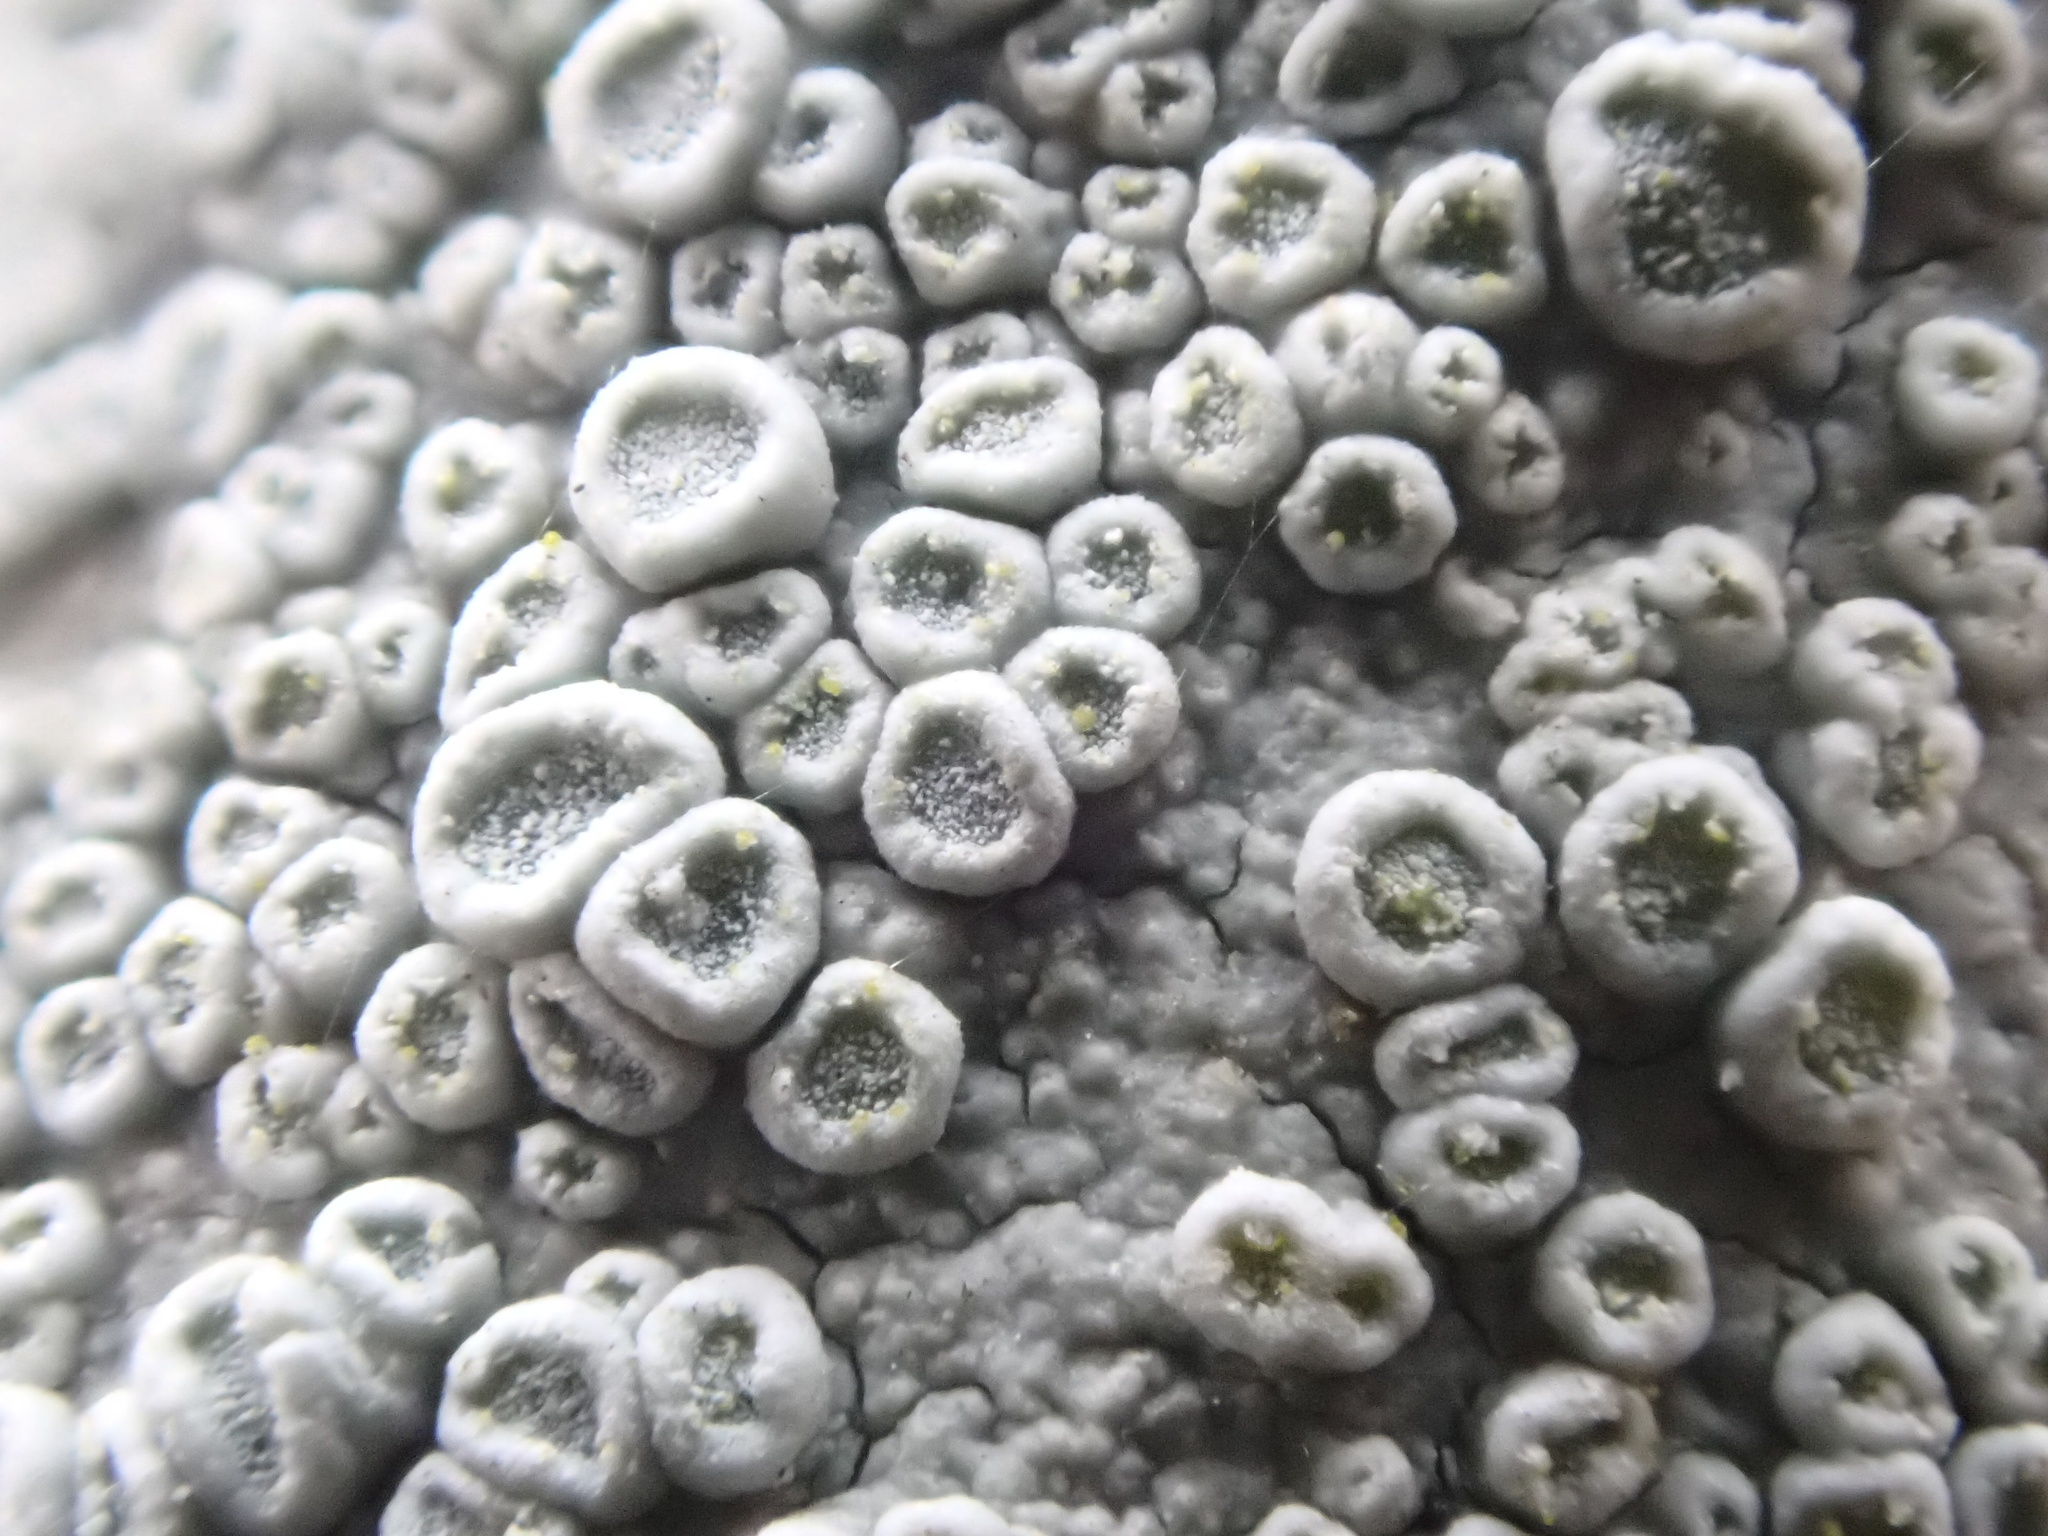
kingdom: Fungi
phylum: Ascomycota
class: Lecanoromycetes
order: Lecanorales
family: Lecanoraceae
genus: Glaucomaria
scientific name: Glaucomaria carpinea
